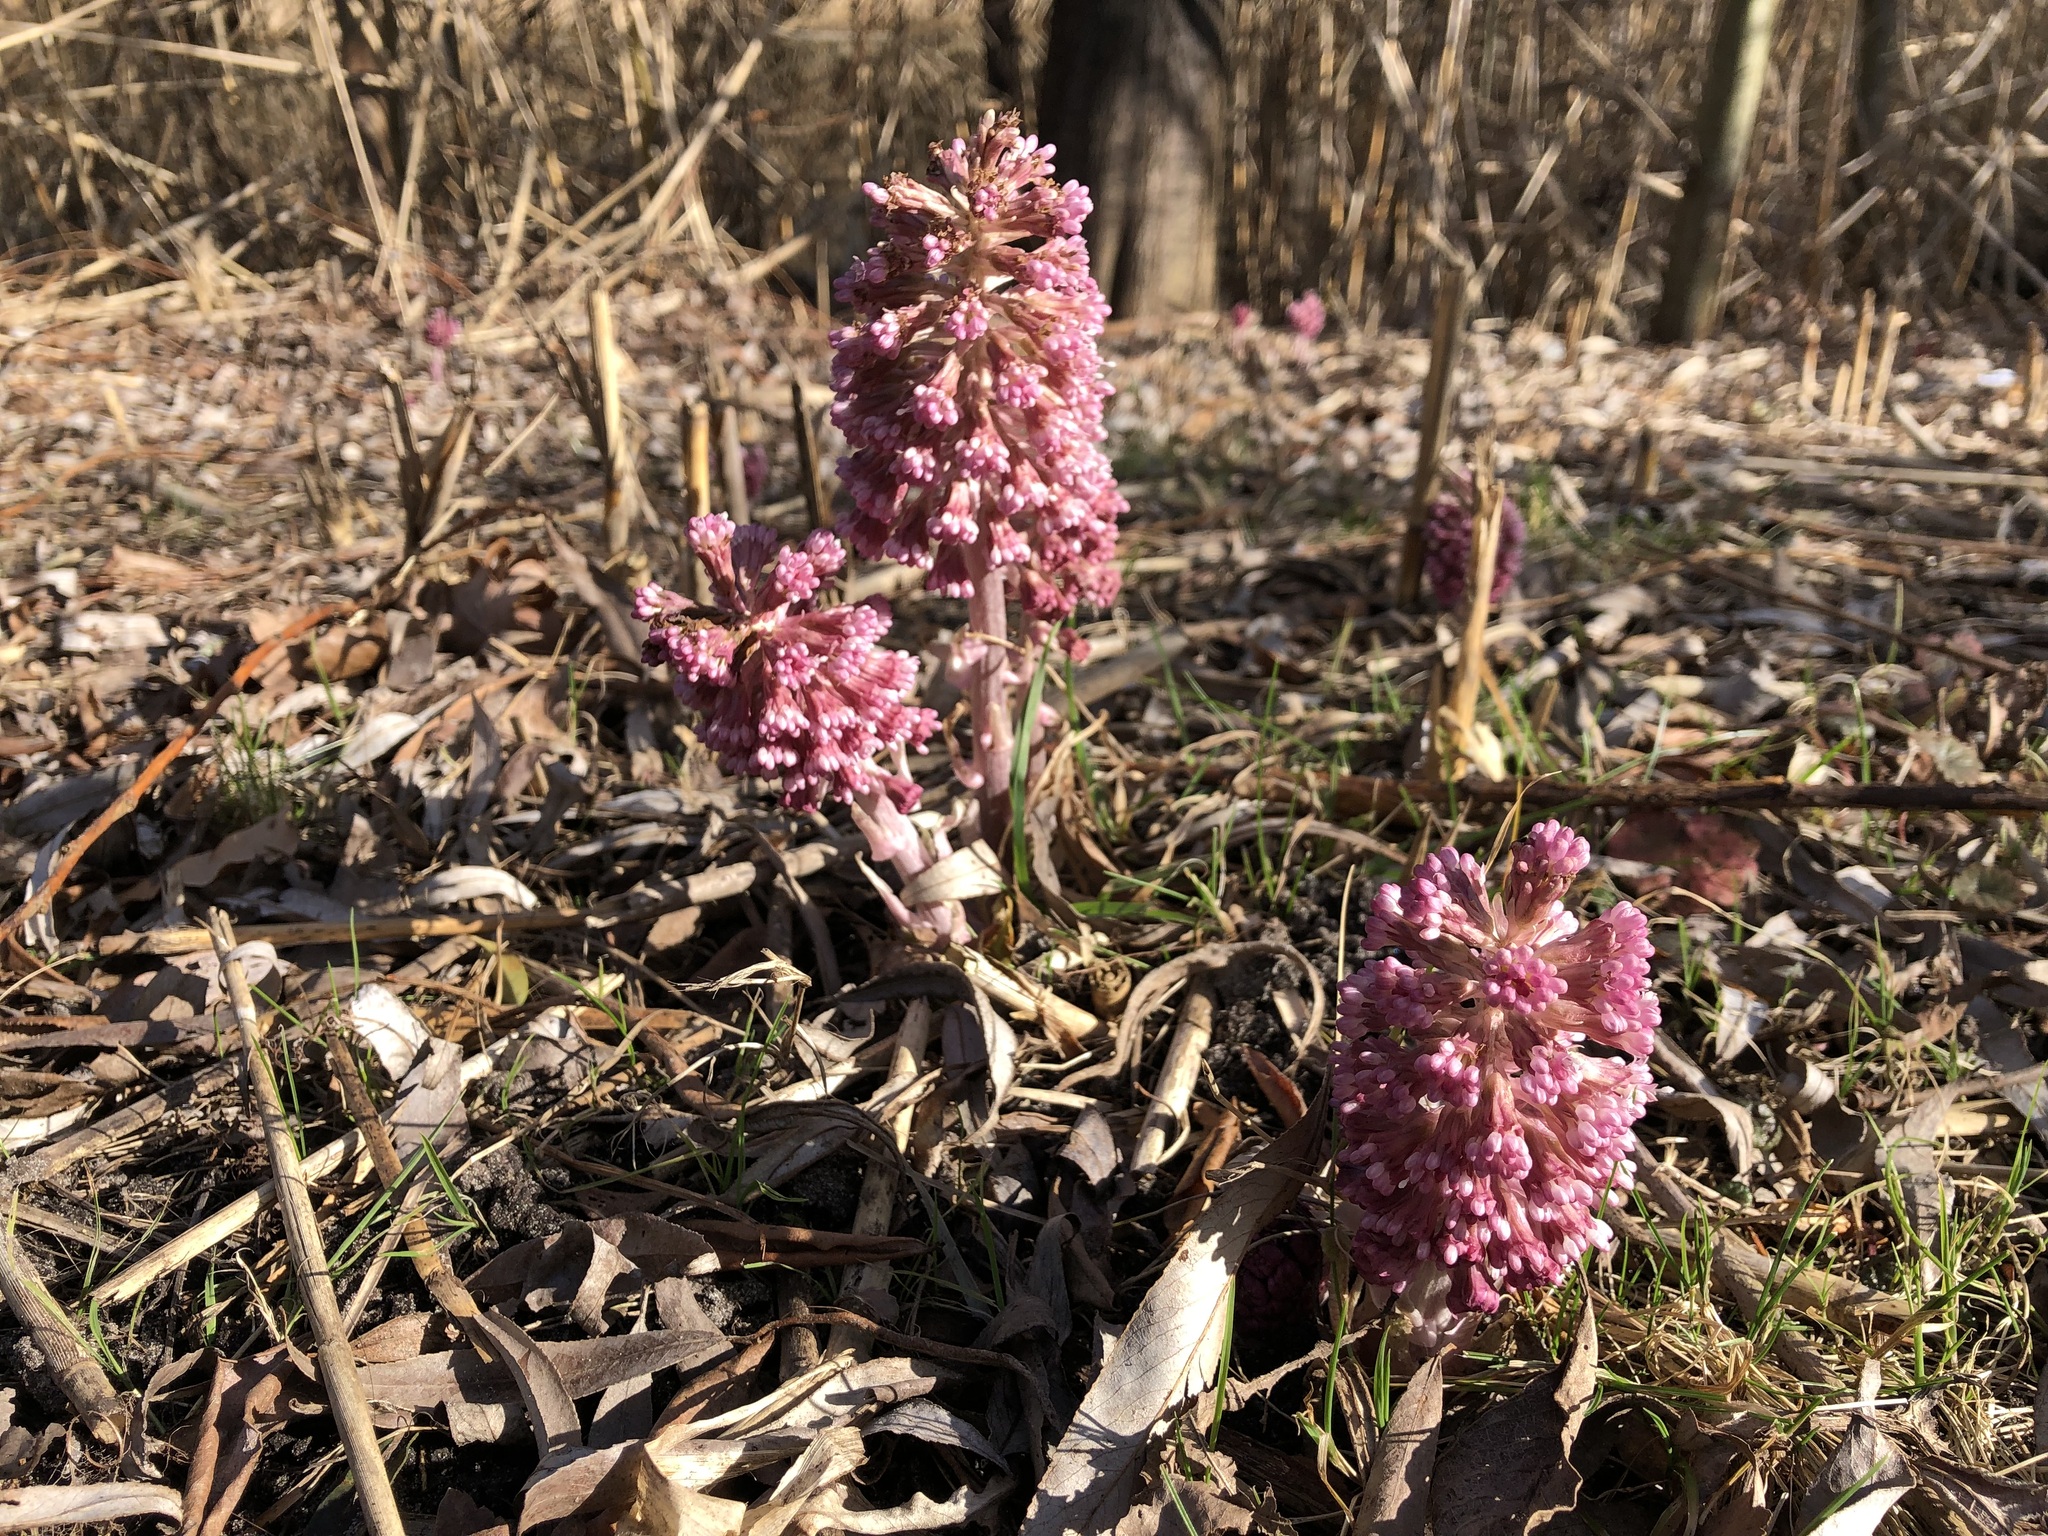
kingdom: Plantae
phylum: Tracheophyta
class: Magnoliopsida
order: Asterales
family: Asteraceae
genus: Petasites
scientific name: Petasites hybridus
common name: Butterbur
